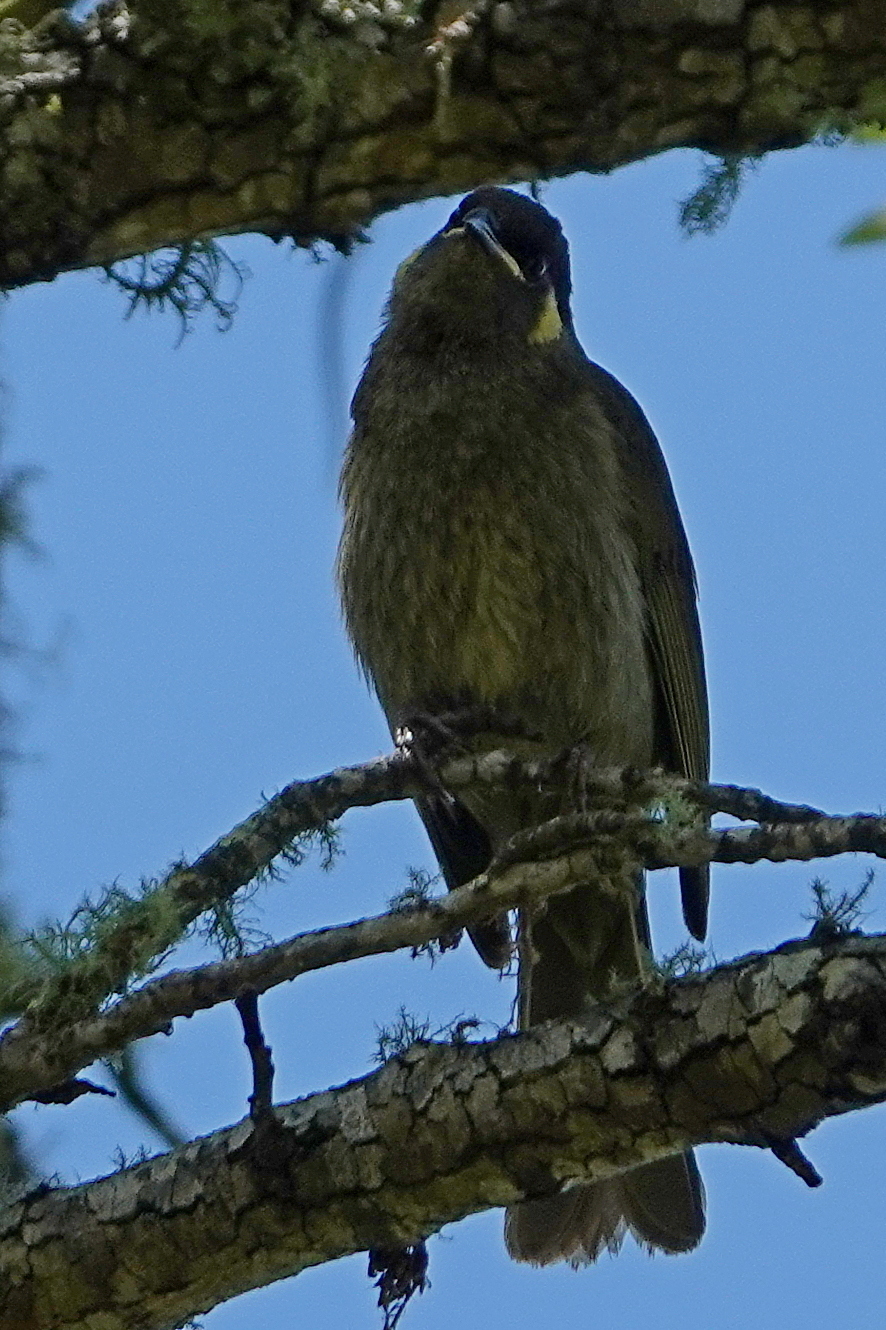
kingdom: Animalia
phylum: Chordata
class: Aves
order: Passeriformes
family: Meliphagidae
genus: Meliphaga
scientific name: Meliphaga lewinii
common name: Lewin's honeyeater
